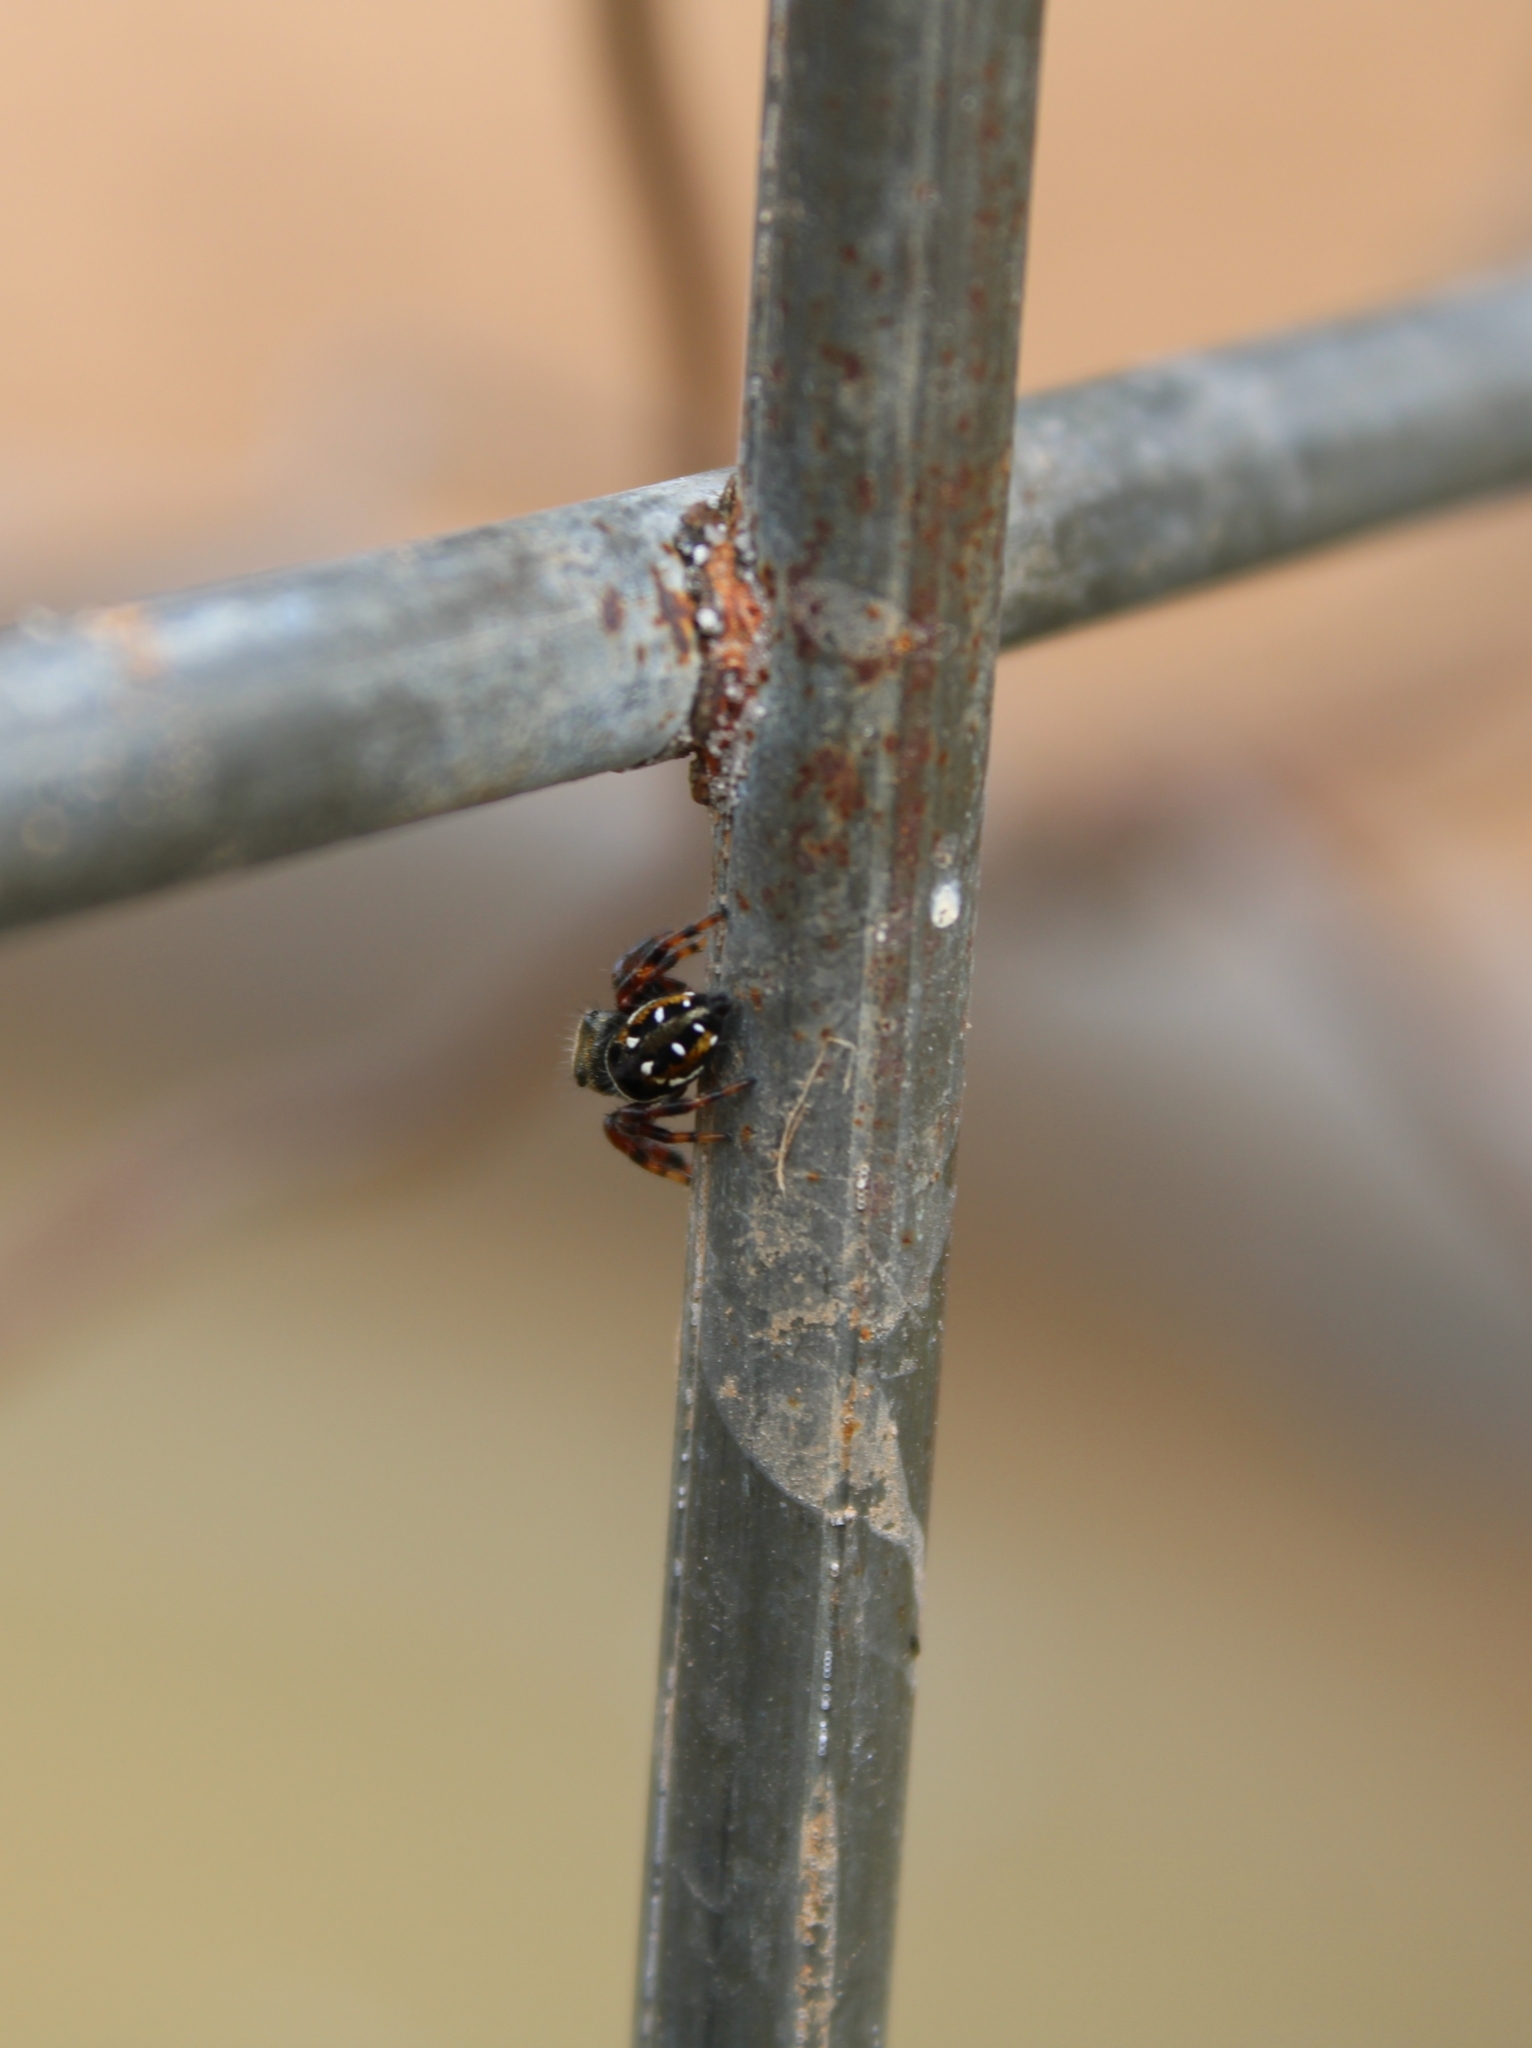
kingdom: Animalia
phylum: Arthropoda
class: Arachnida
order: Araneae
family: Salticidae
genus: Phidippus
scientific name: Phidippus clarus
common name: Brilliant jumping spider
